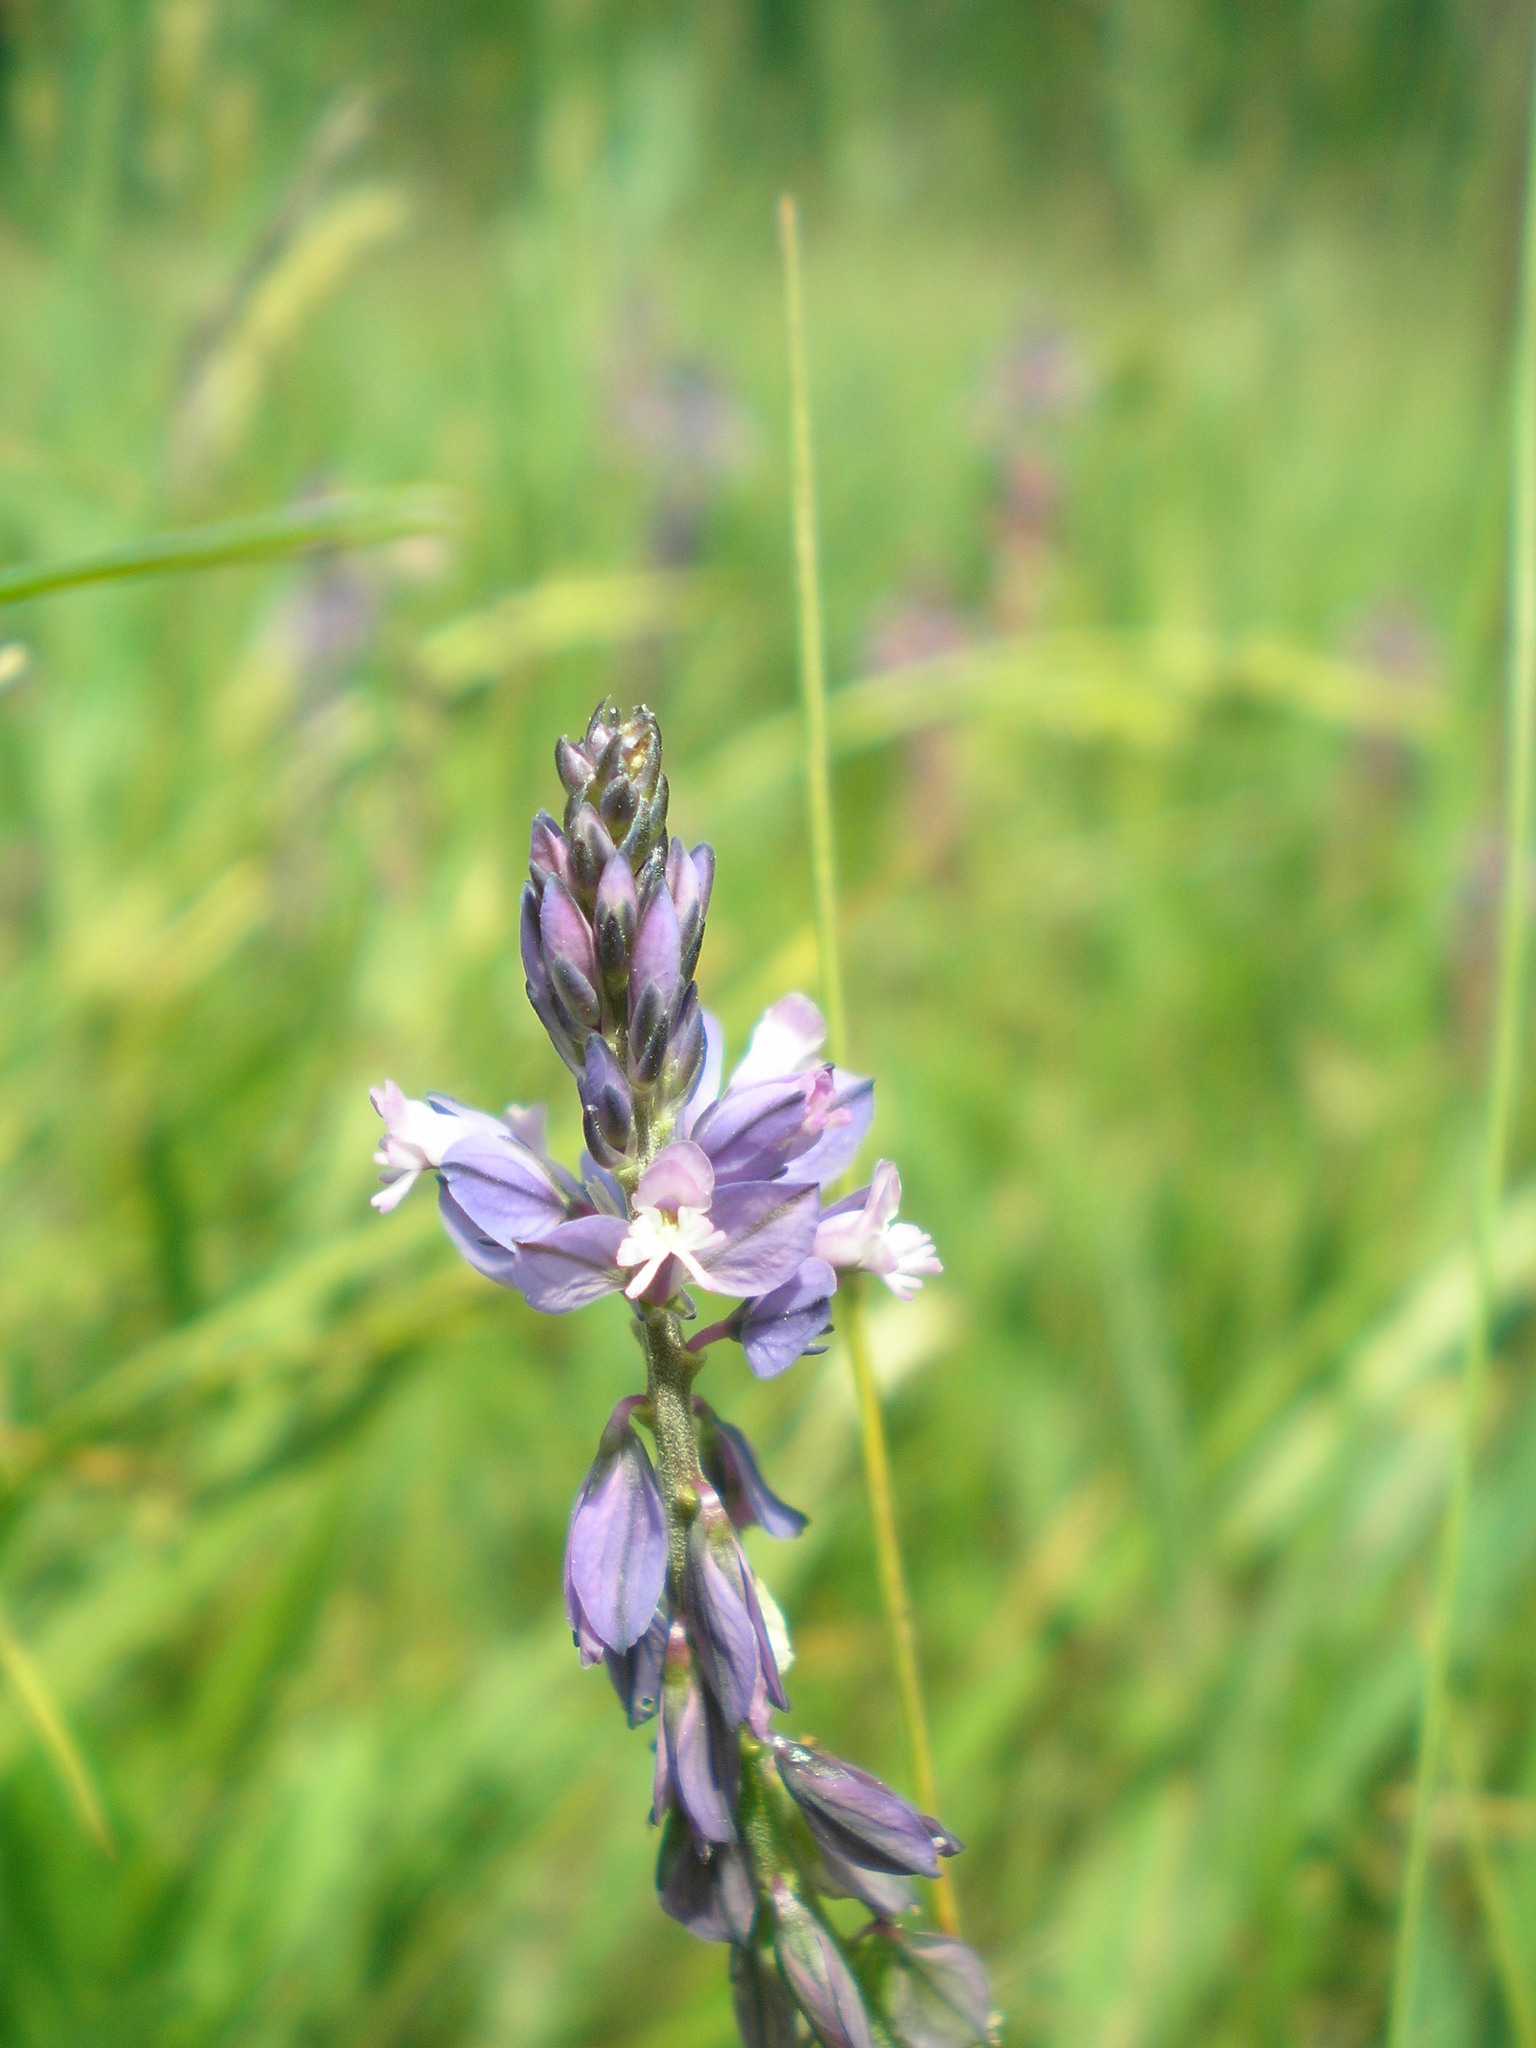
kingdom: Plantae
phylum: Tracheophyta
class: Magnoliopsida
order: Fabales
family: Polygalaceae
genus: Polygala
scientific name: Polygala comosa
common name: Tufted milkwort
